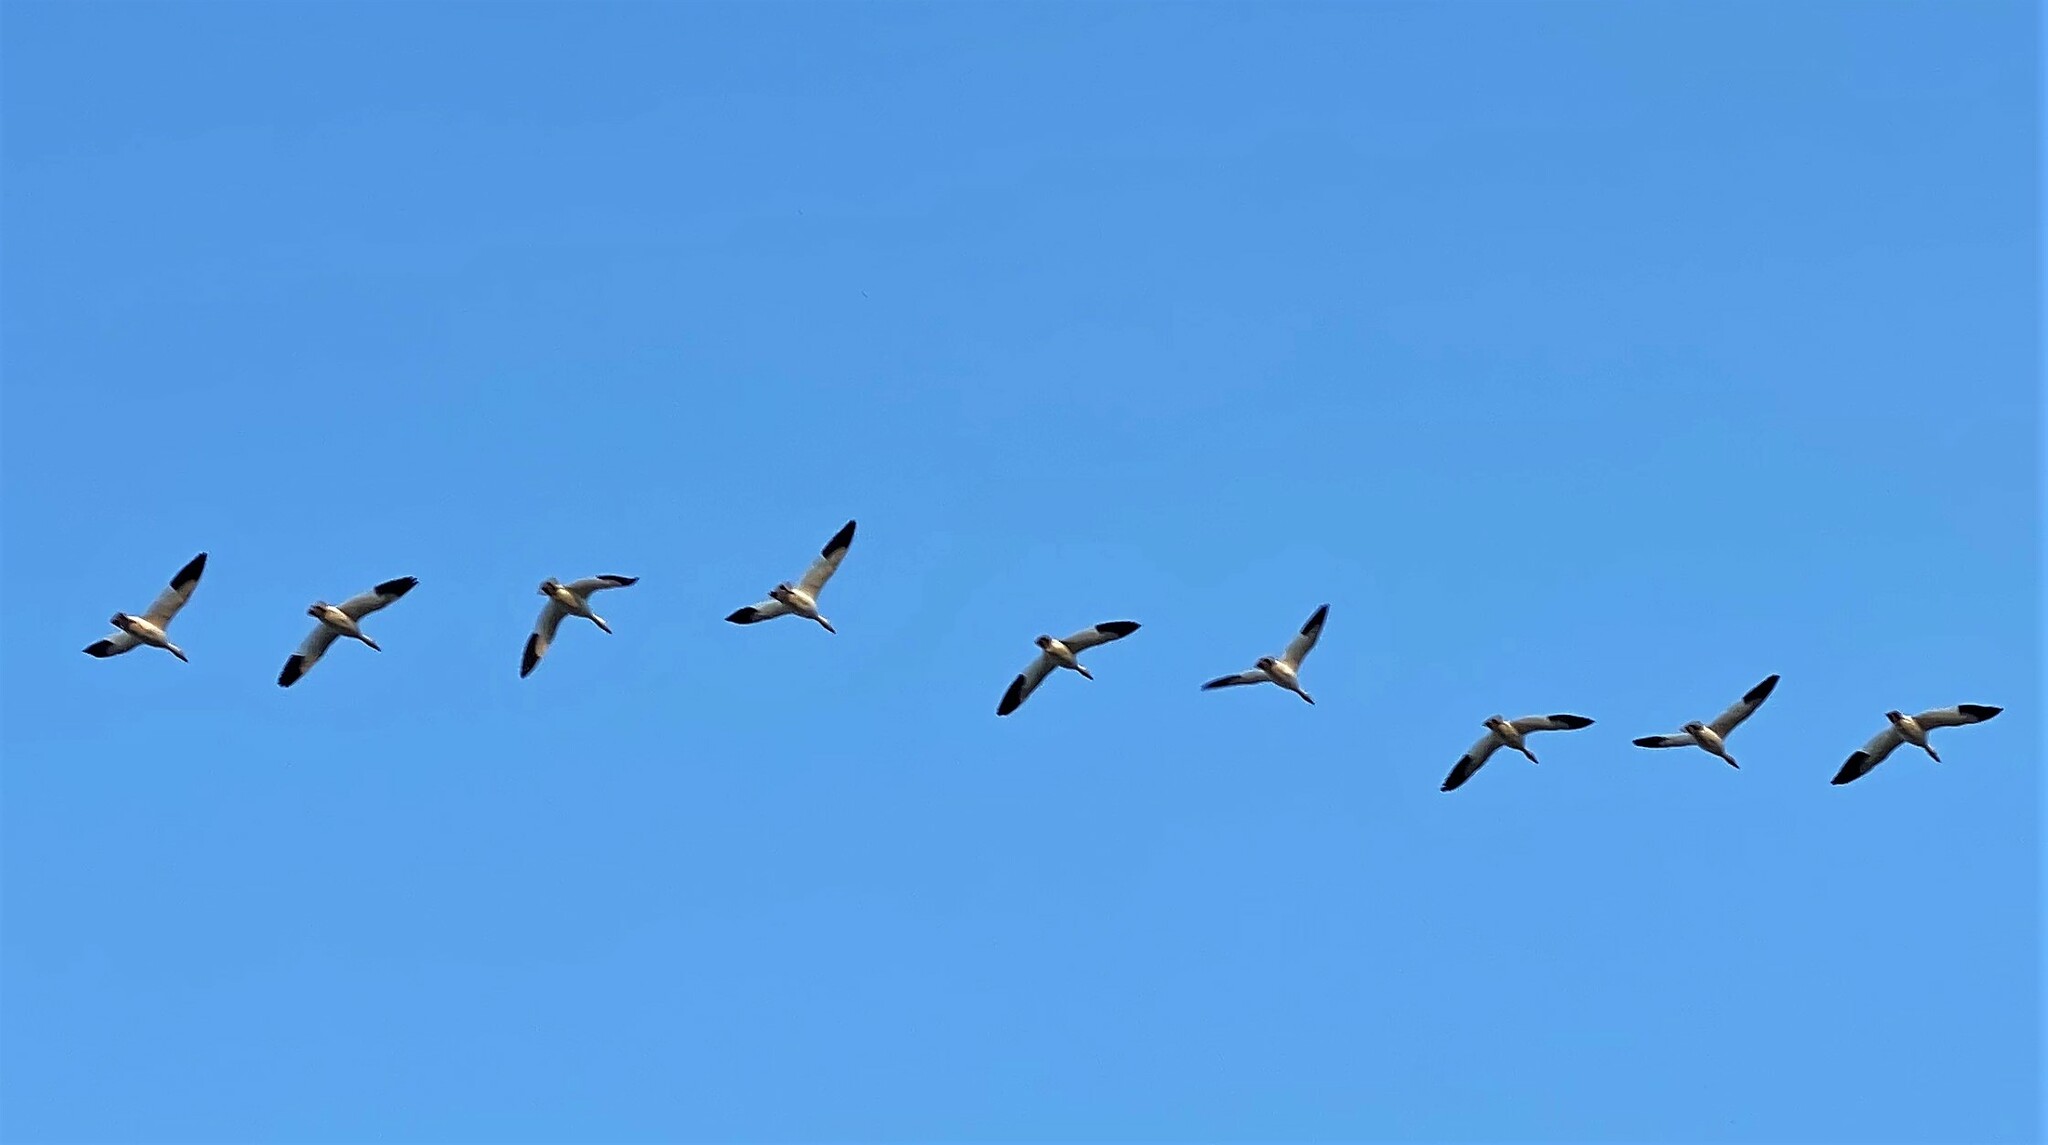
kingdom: Animalia
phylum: Chordata
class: Aves
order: Anseriformes
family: Anatidae
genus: Anser
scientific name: Anser caerulescens
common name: Snow goose
